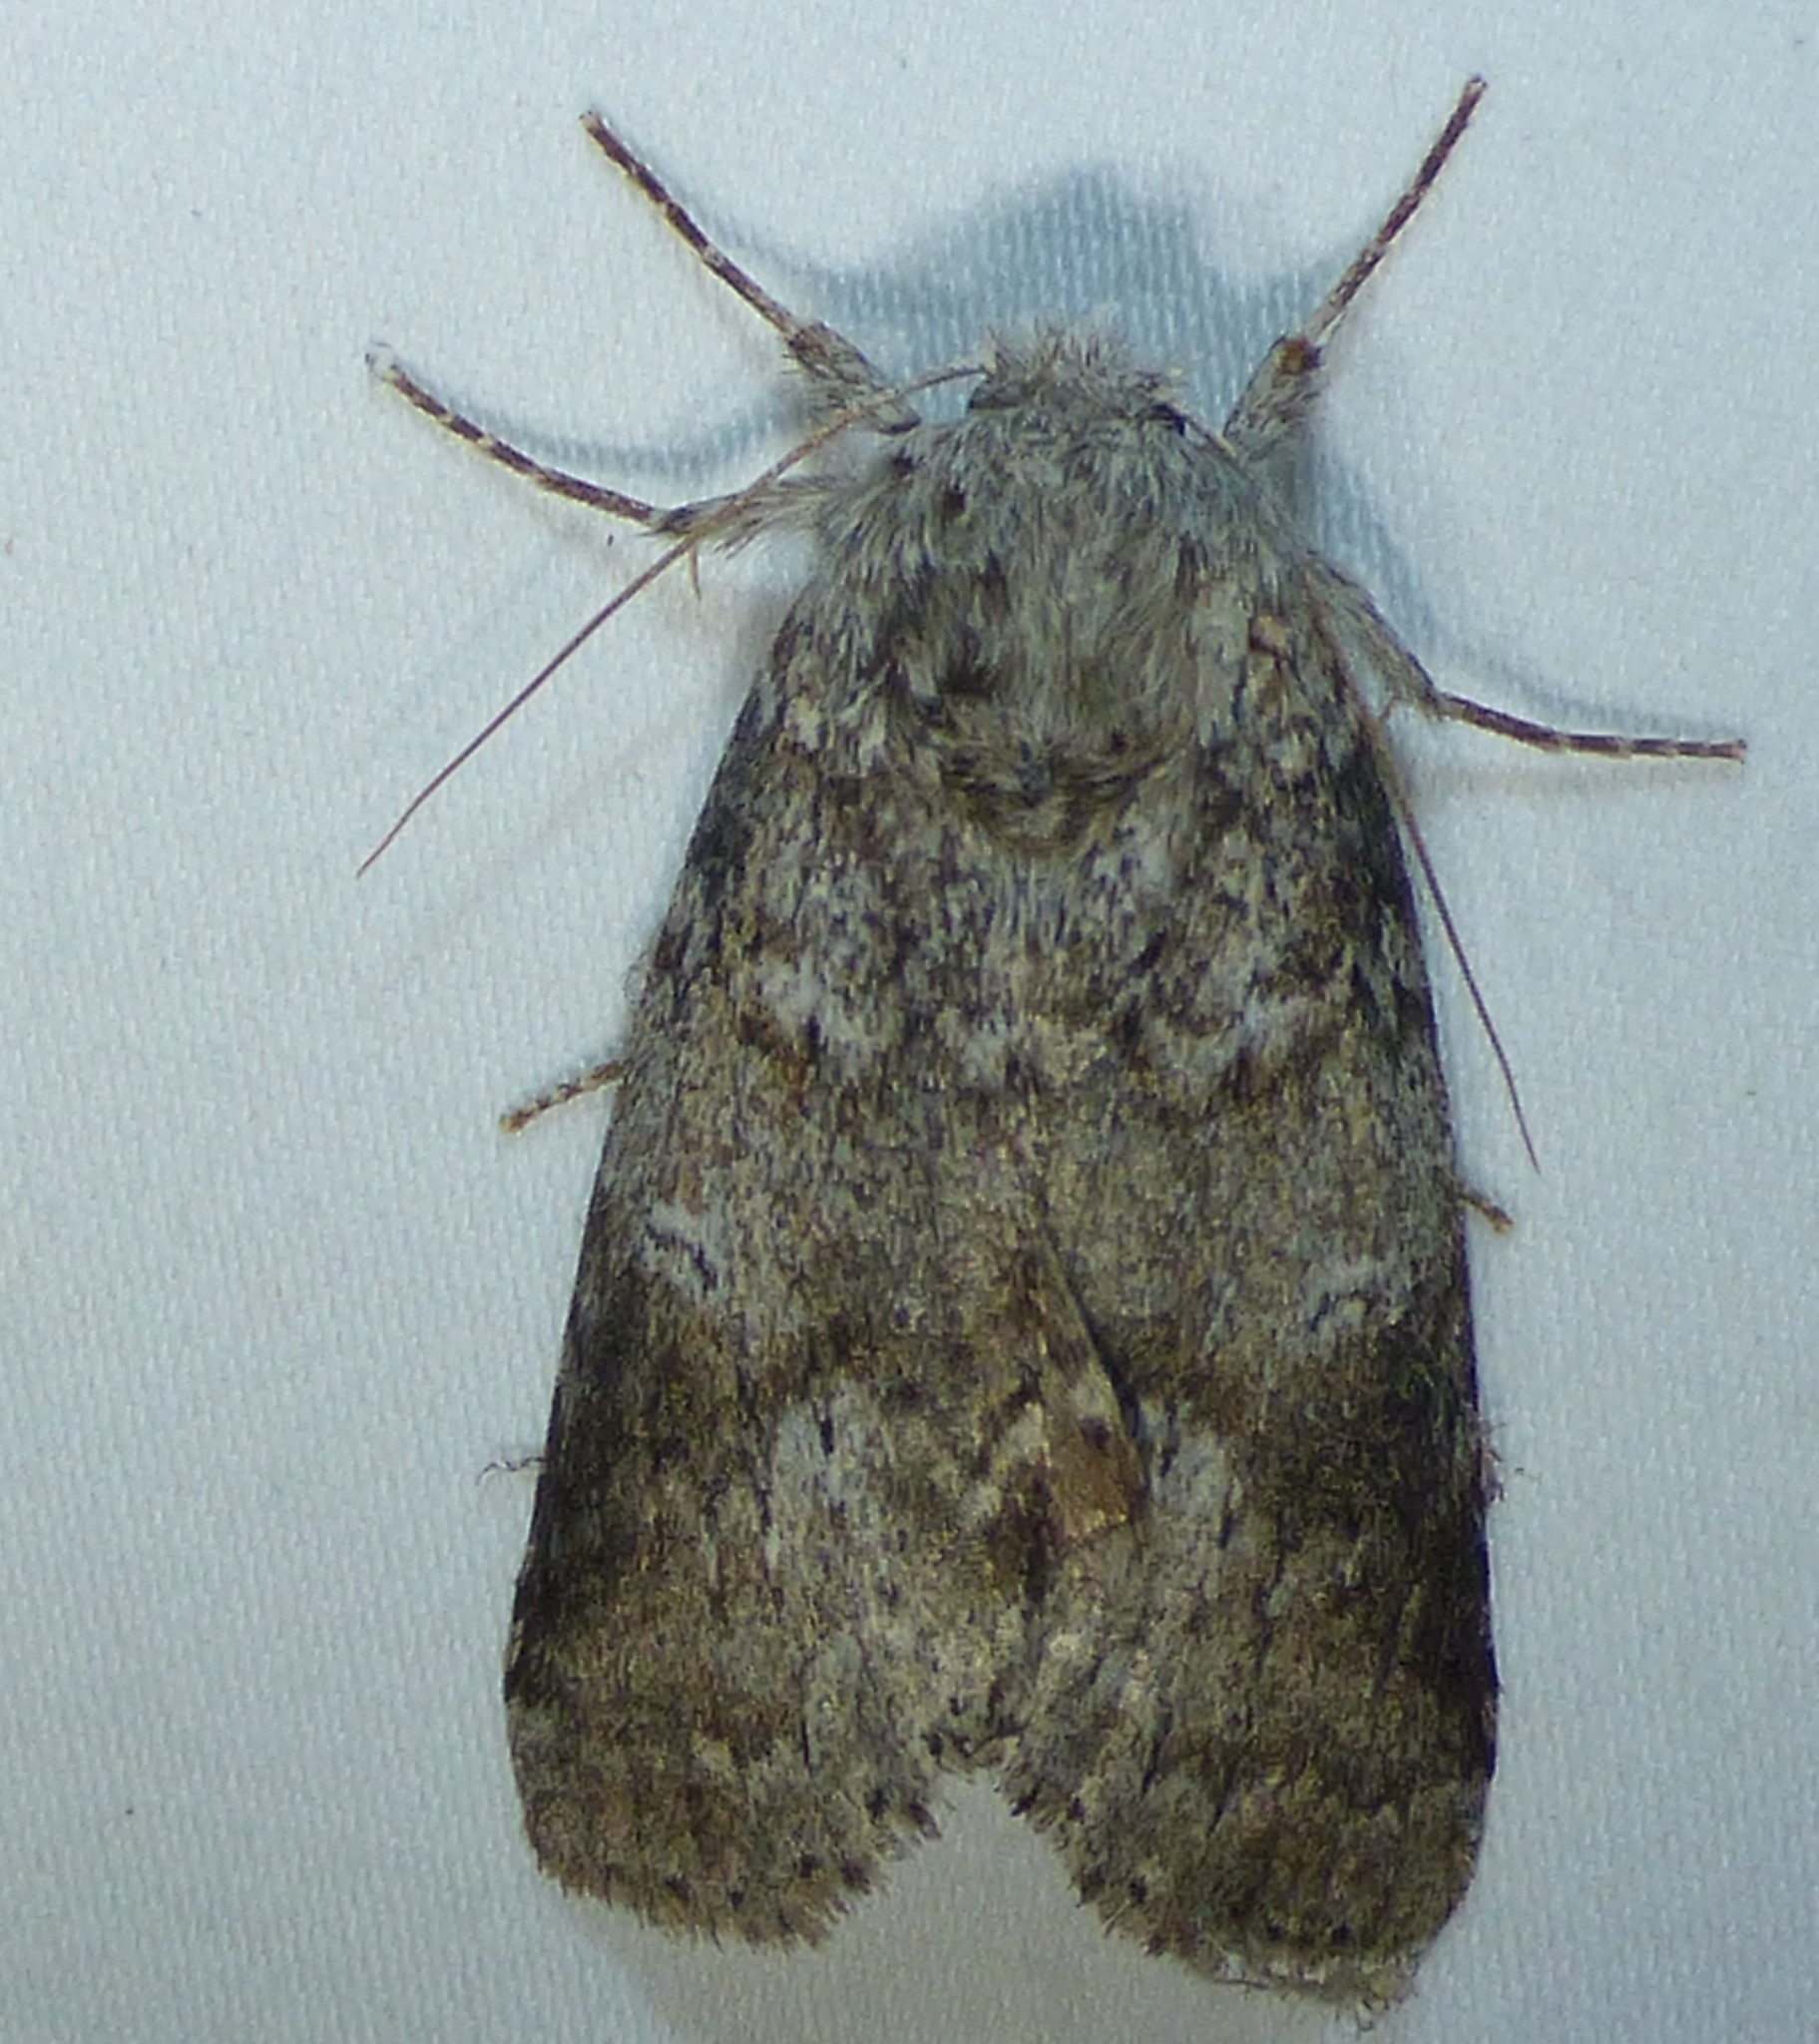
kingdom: Animalia
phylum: Arthropoda
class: Insecta
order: Lepidoptera
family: Notodontidae
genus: Lochmaeus
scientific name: Lochmaeus manteo
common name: Variable oakleaf caterpillar moth
